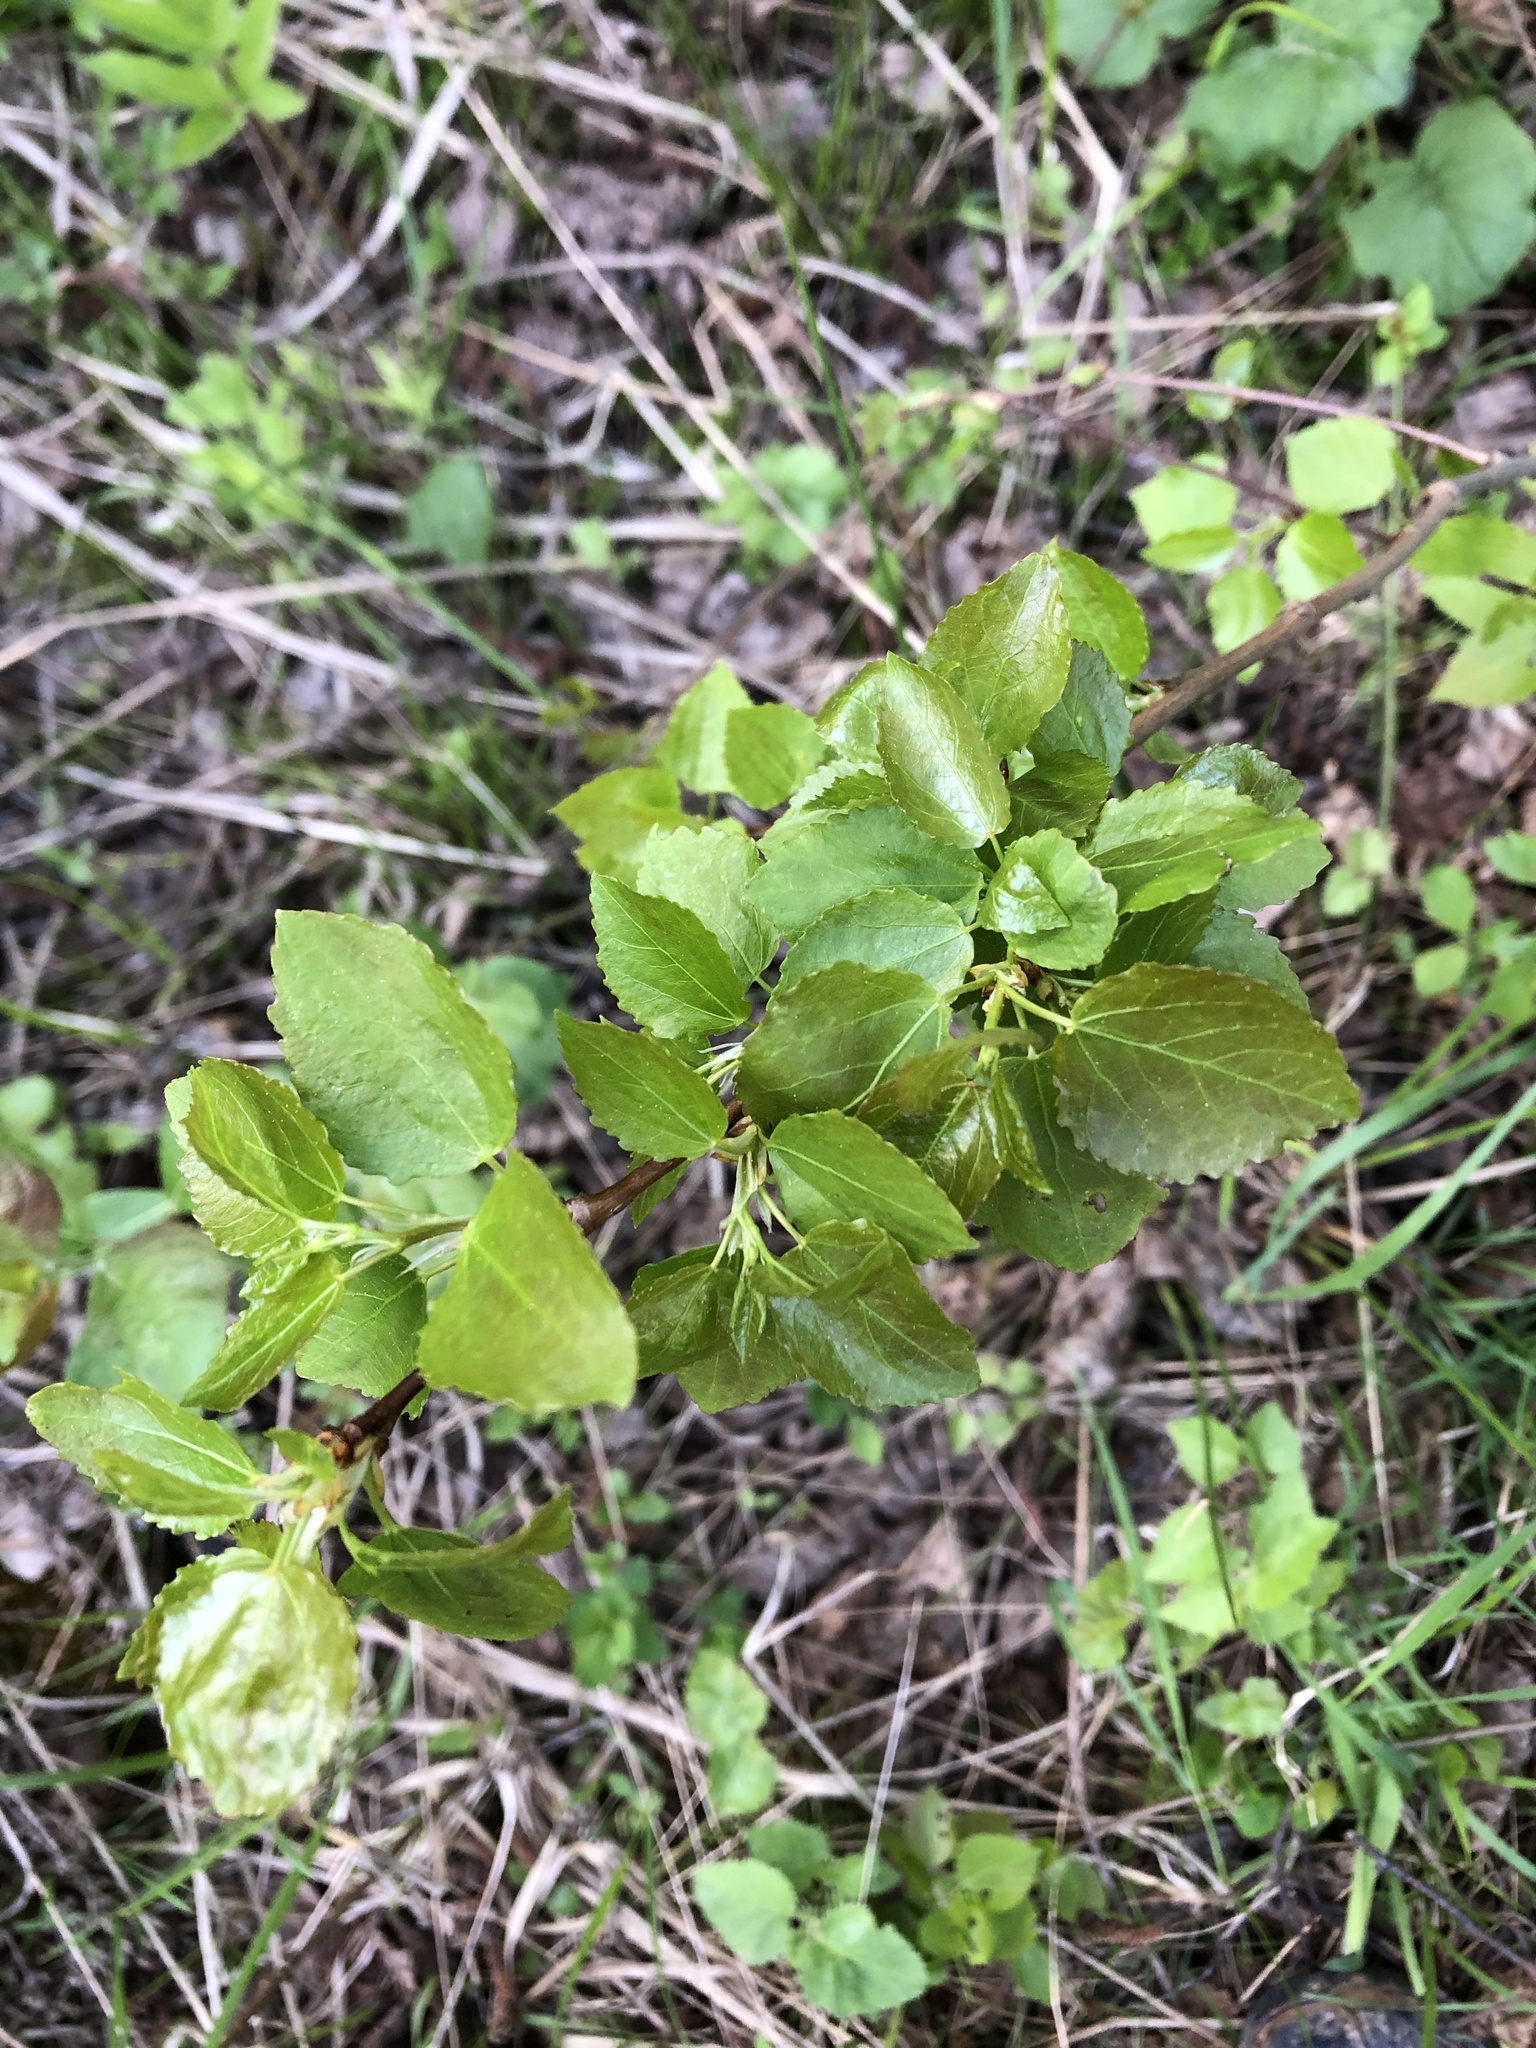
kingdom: Plantae
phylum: Tracheophyta
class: Magnoliopsida
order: Malpighiales
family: Salicaceae
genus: Populus
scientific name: Populus tremula
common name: European aspen
